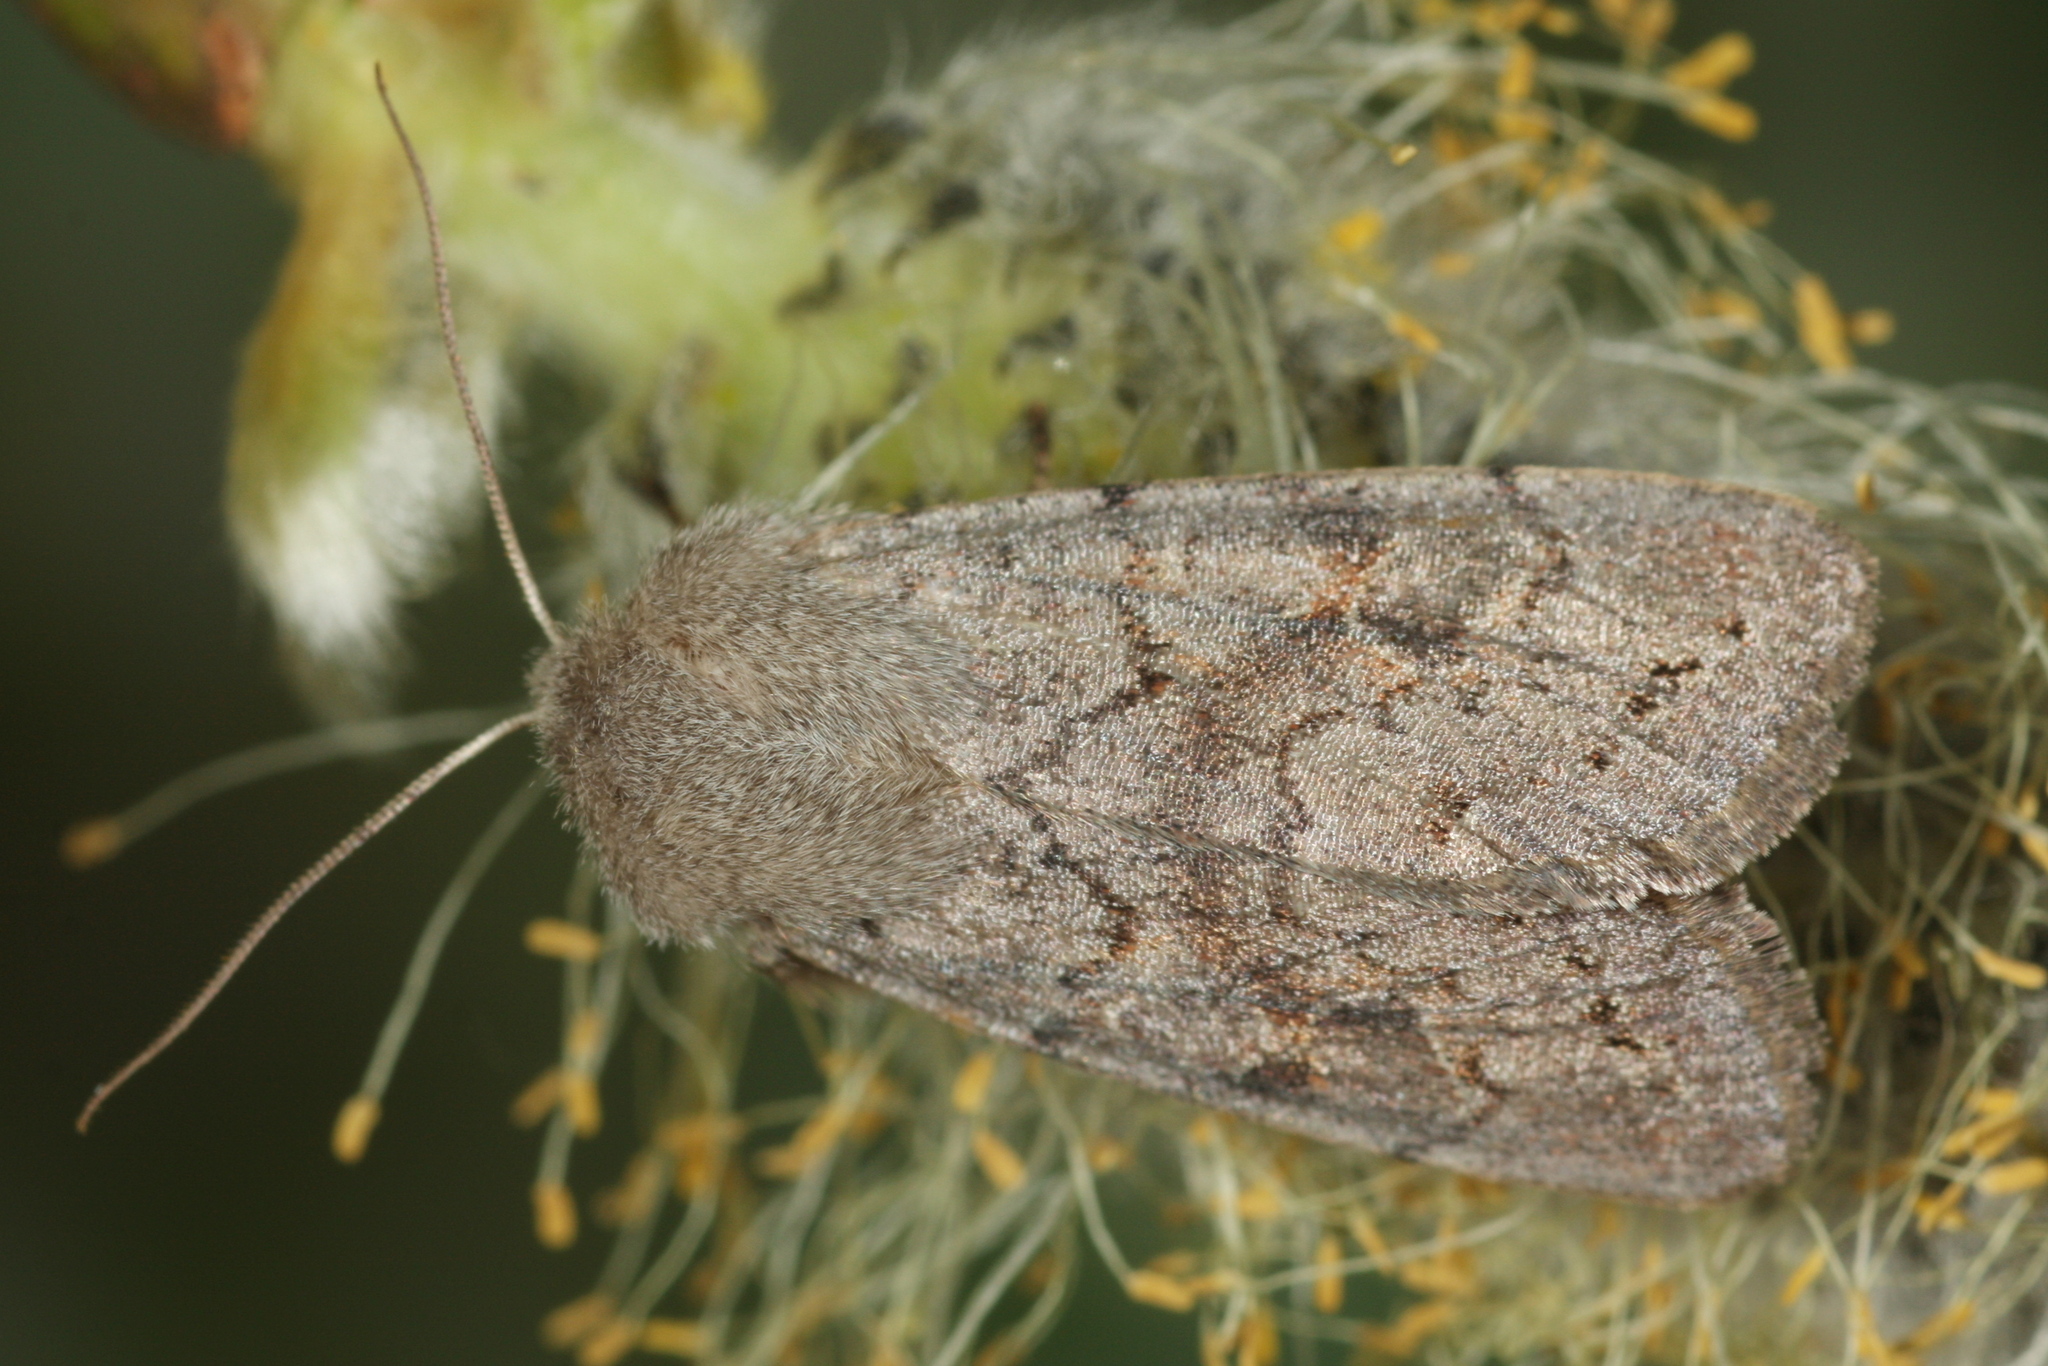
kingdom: Animalia
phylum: Arthropoda
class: Insecta
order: Lepidoptera
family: Noctuidae
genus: Orthosia
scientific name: Orthosia populeti
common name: Lead-coloured drab
